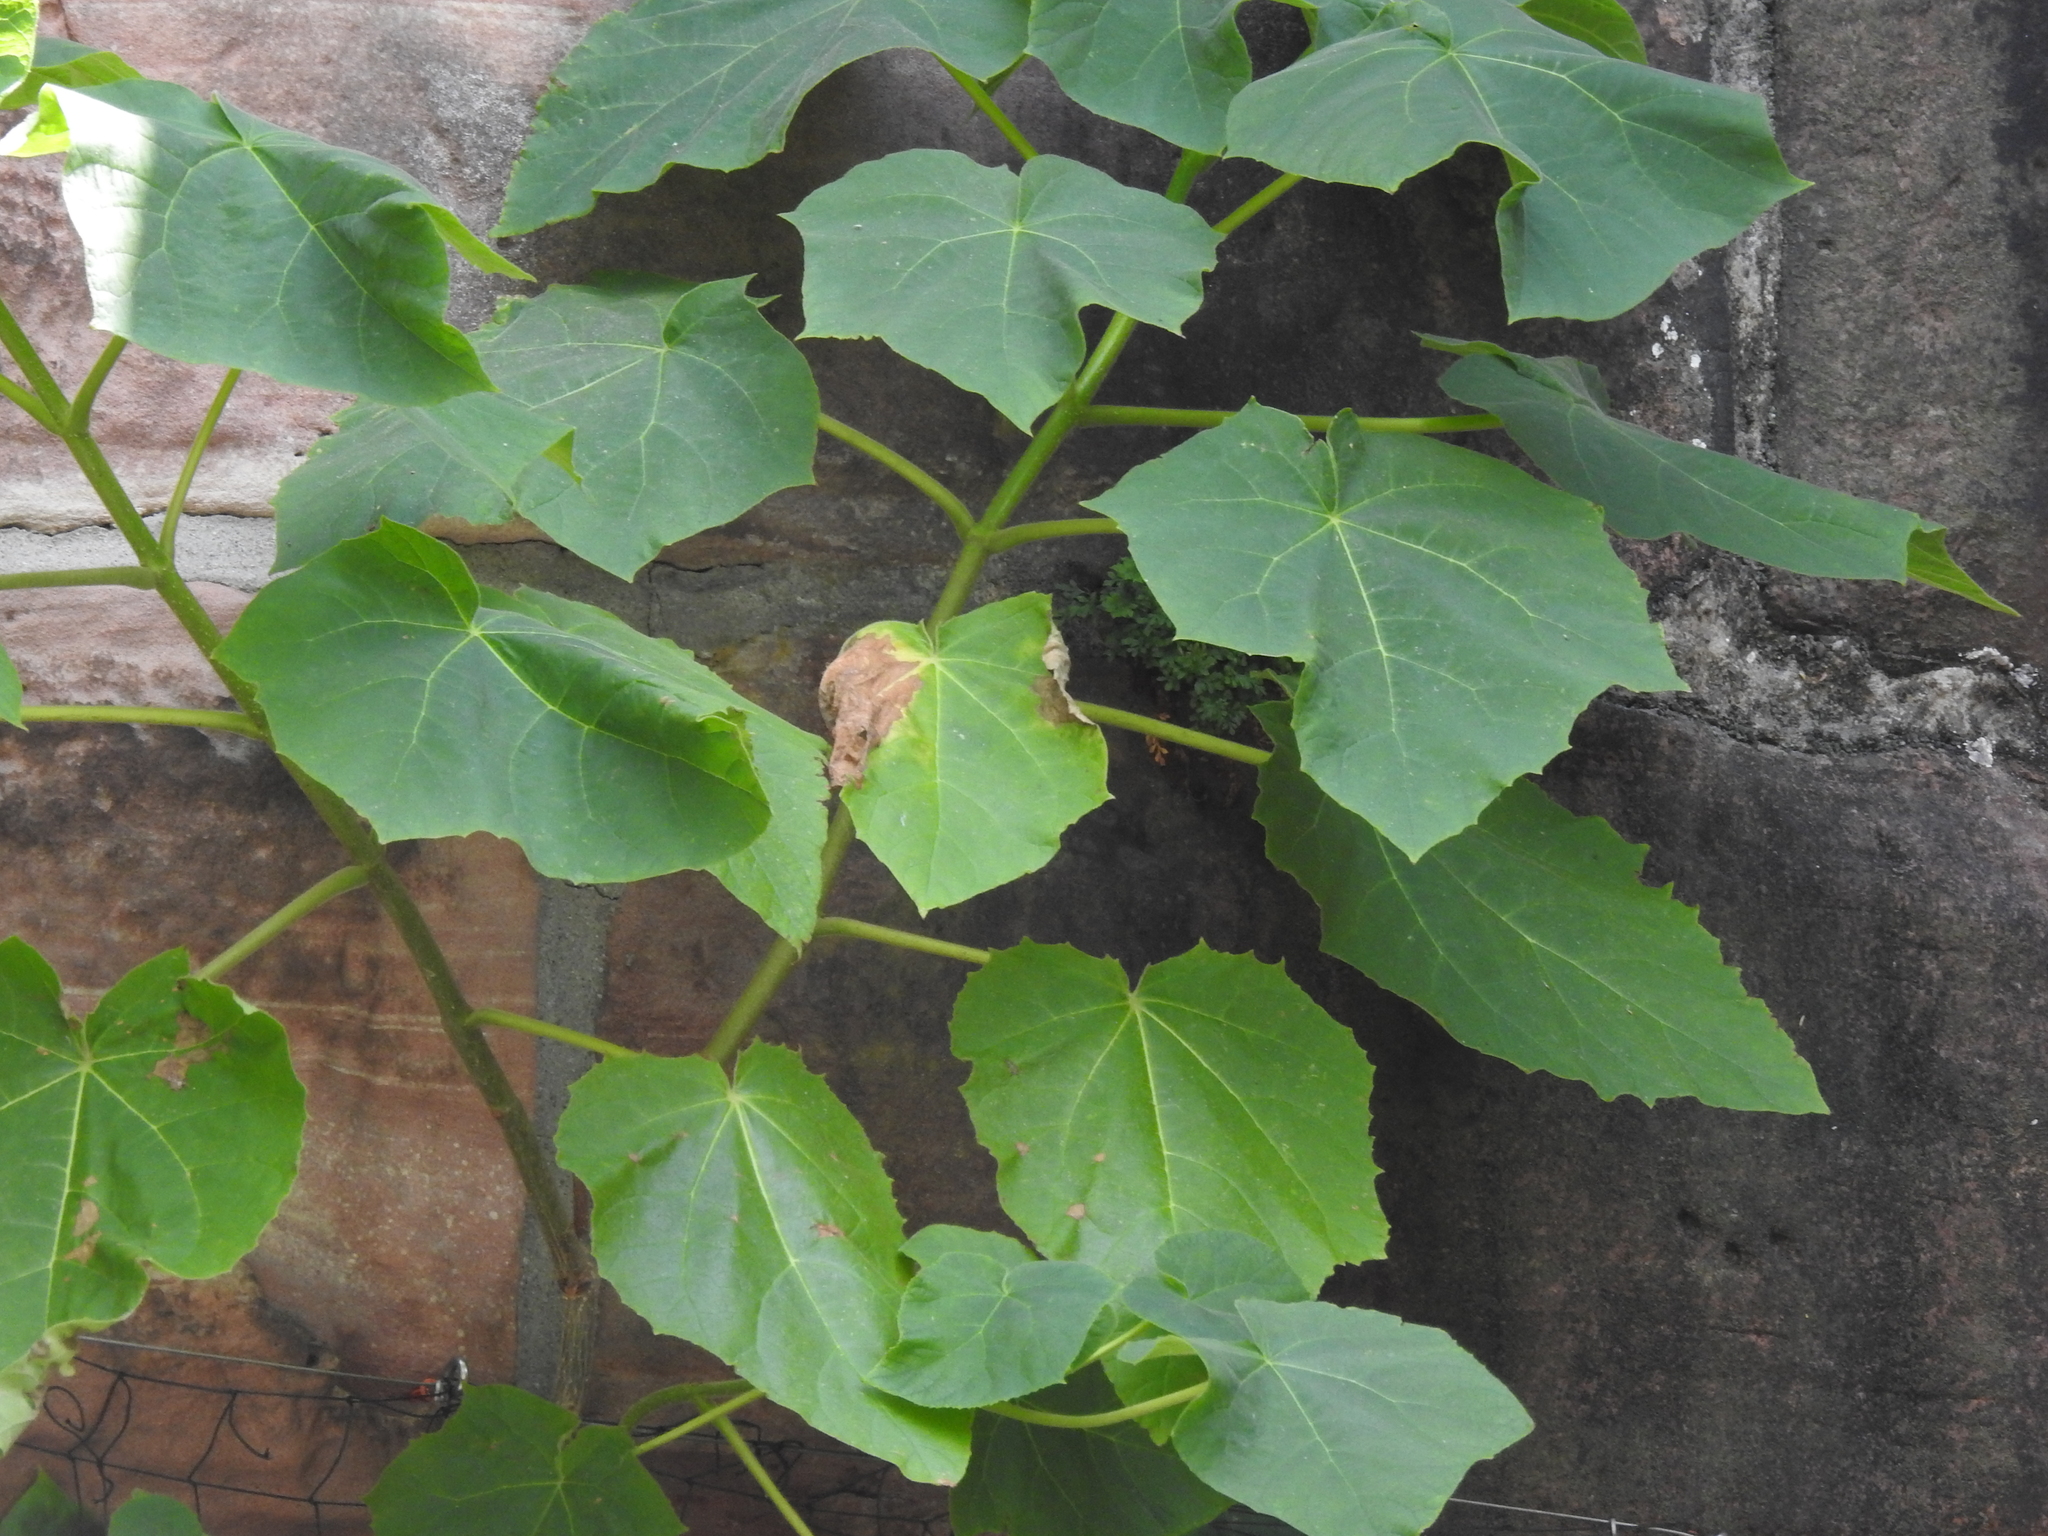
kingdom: Plantae
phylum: Tracheophyta
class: Magnoliopsida
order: Lamiales
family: Paulowniaceae
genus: Paulownia
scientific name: Paulownia tomentosa
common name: Foxglove-tree
